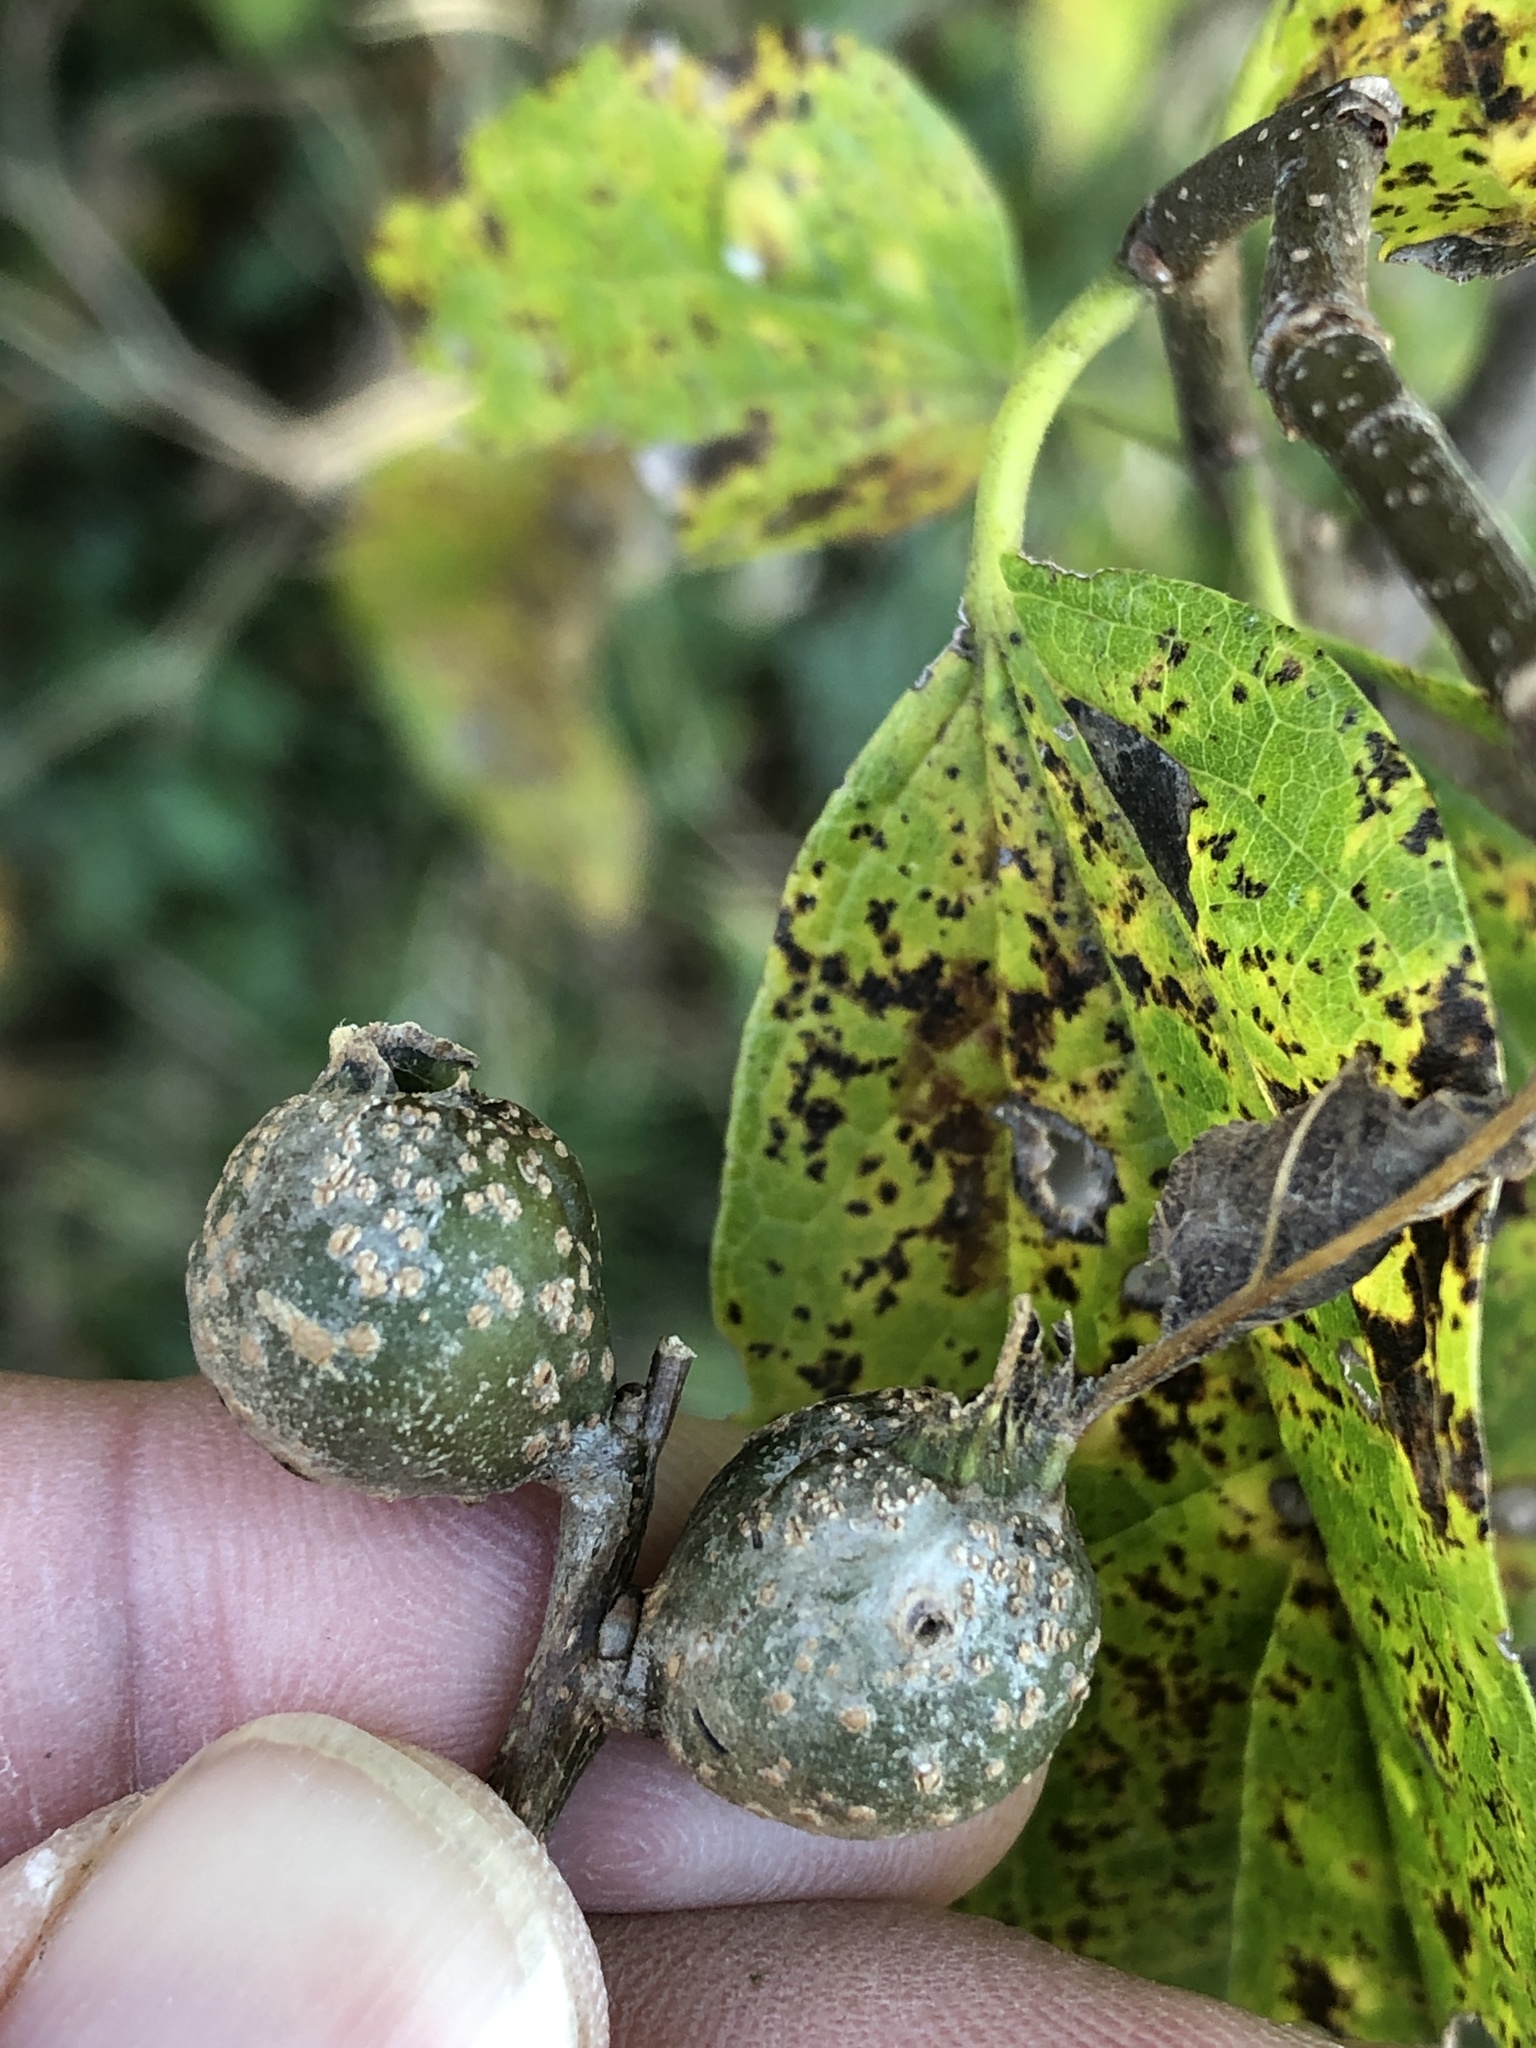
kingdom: Animalia
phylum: Arthropoda
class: Insecta
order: Hemiptera
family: Aphalaridae
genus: Pachypsylla
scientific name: Pachypsylla venusta
